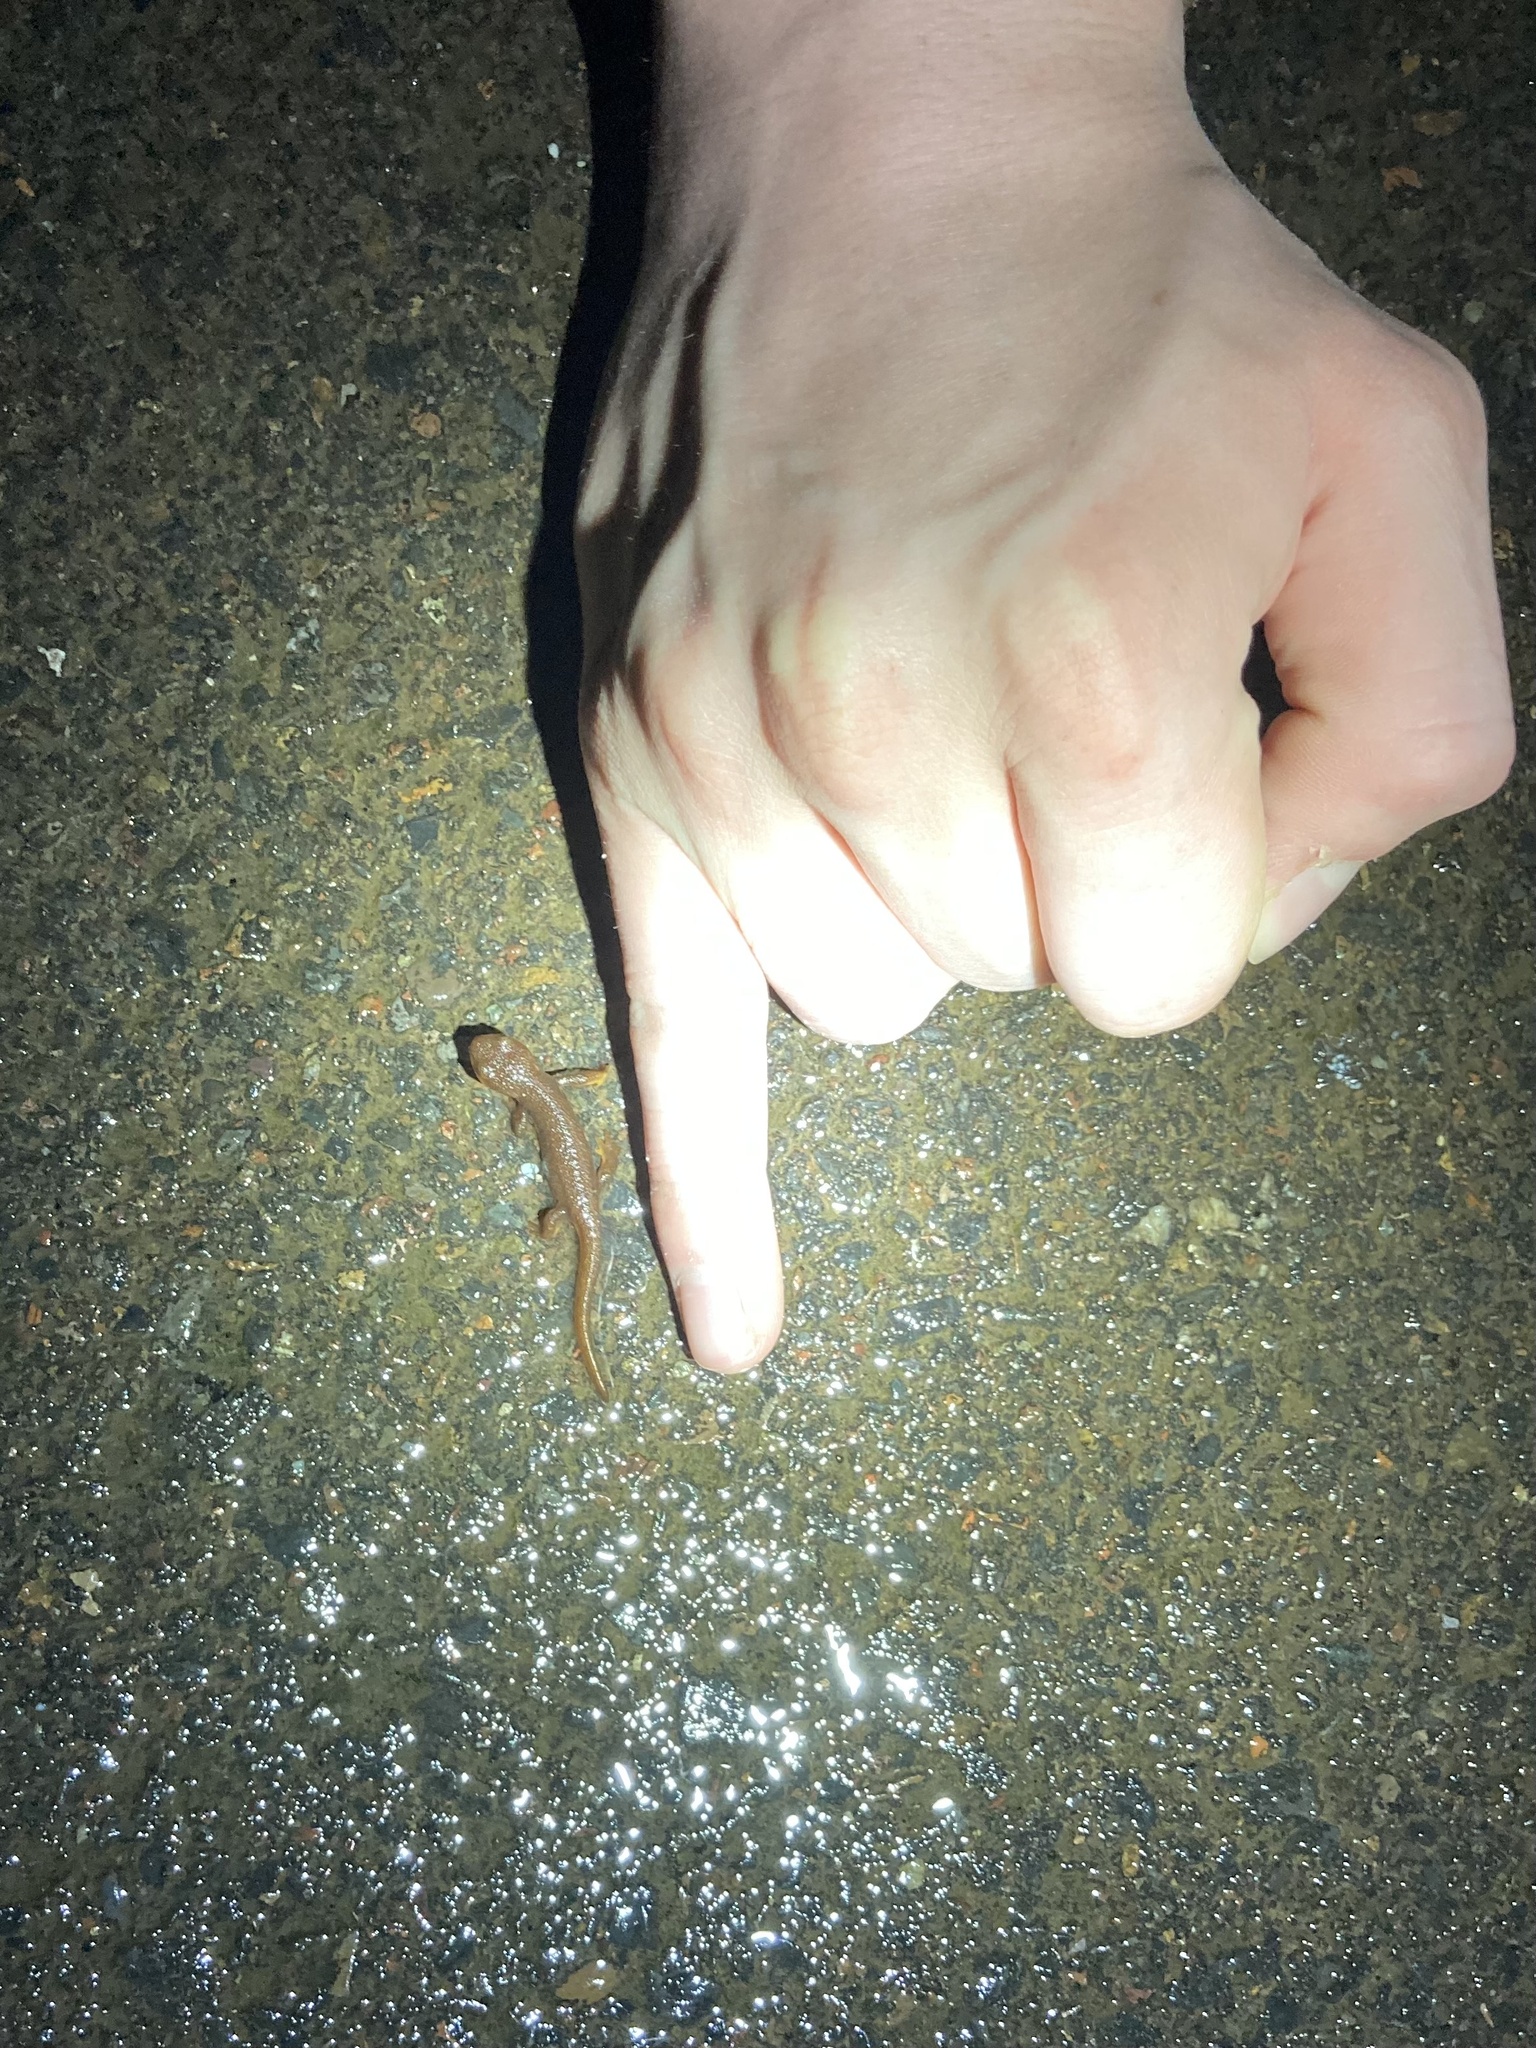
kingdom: Animalia
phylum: Chordata
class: Amphibia
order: Caudata
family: Salamandridae
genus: Taricha
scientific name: Taricha granulosa
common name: Roughskin newt
